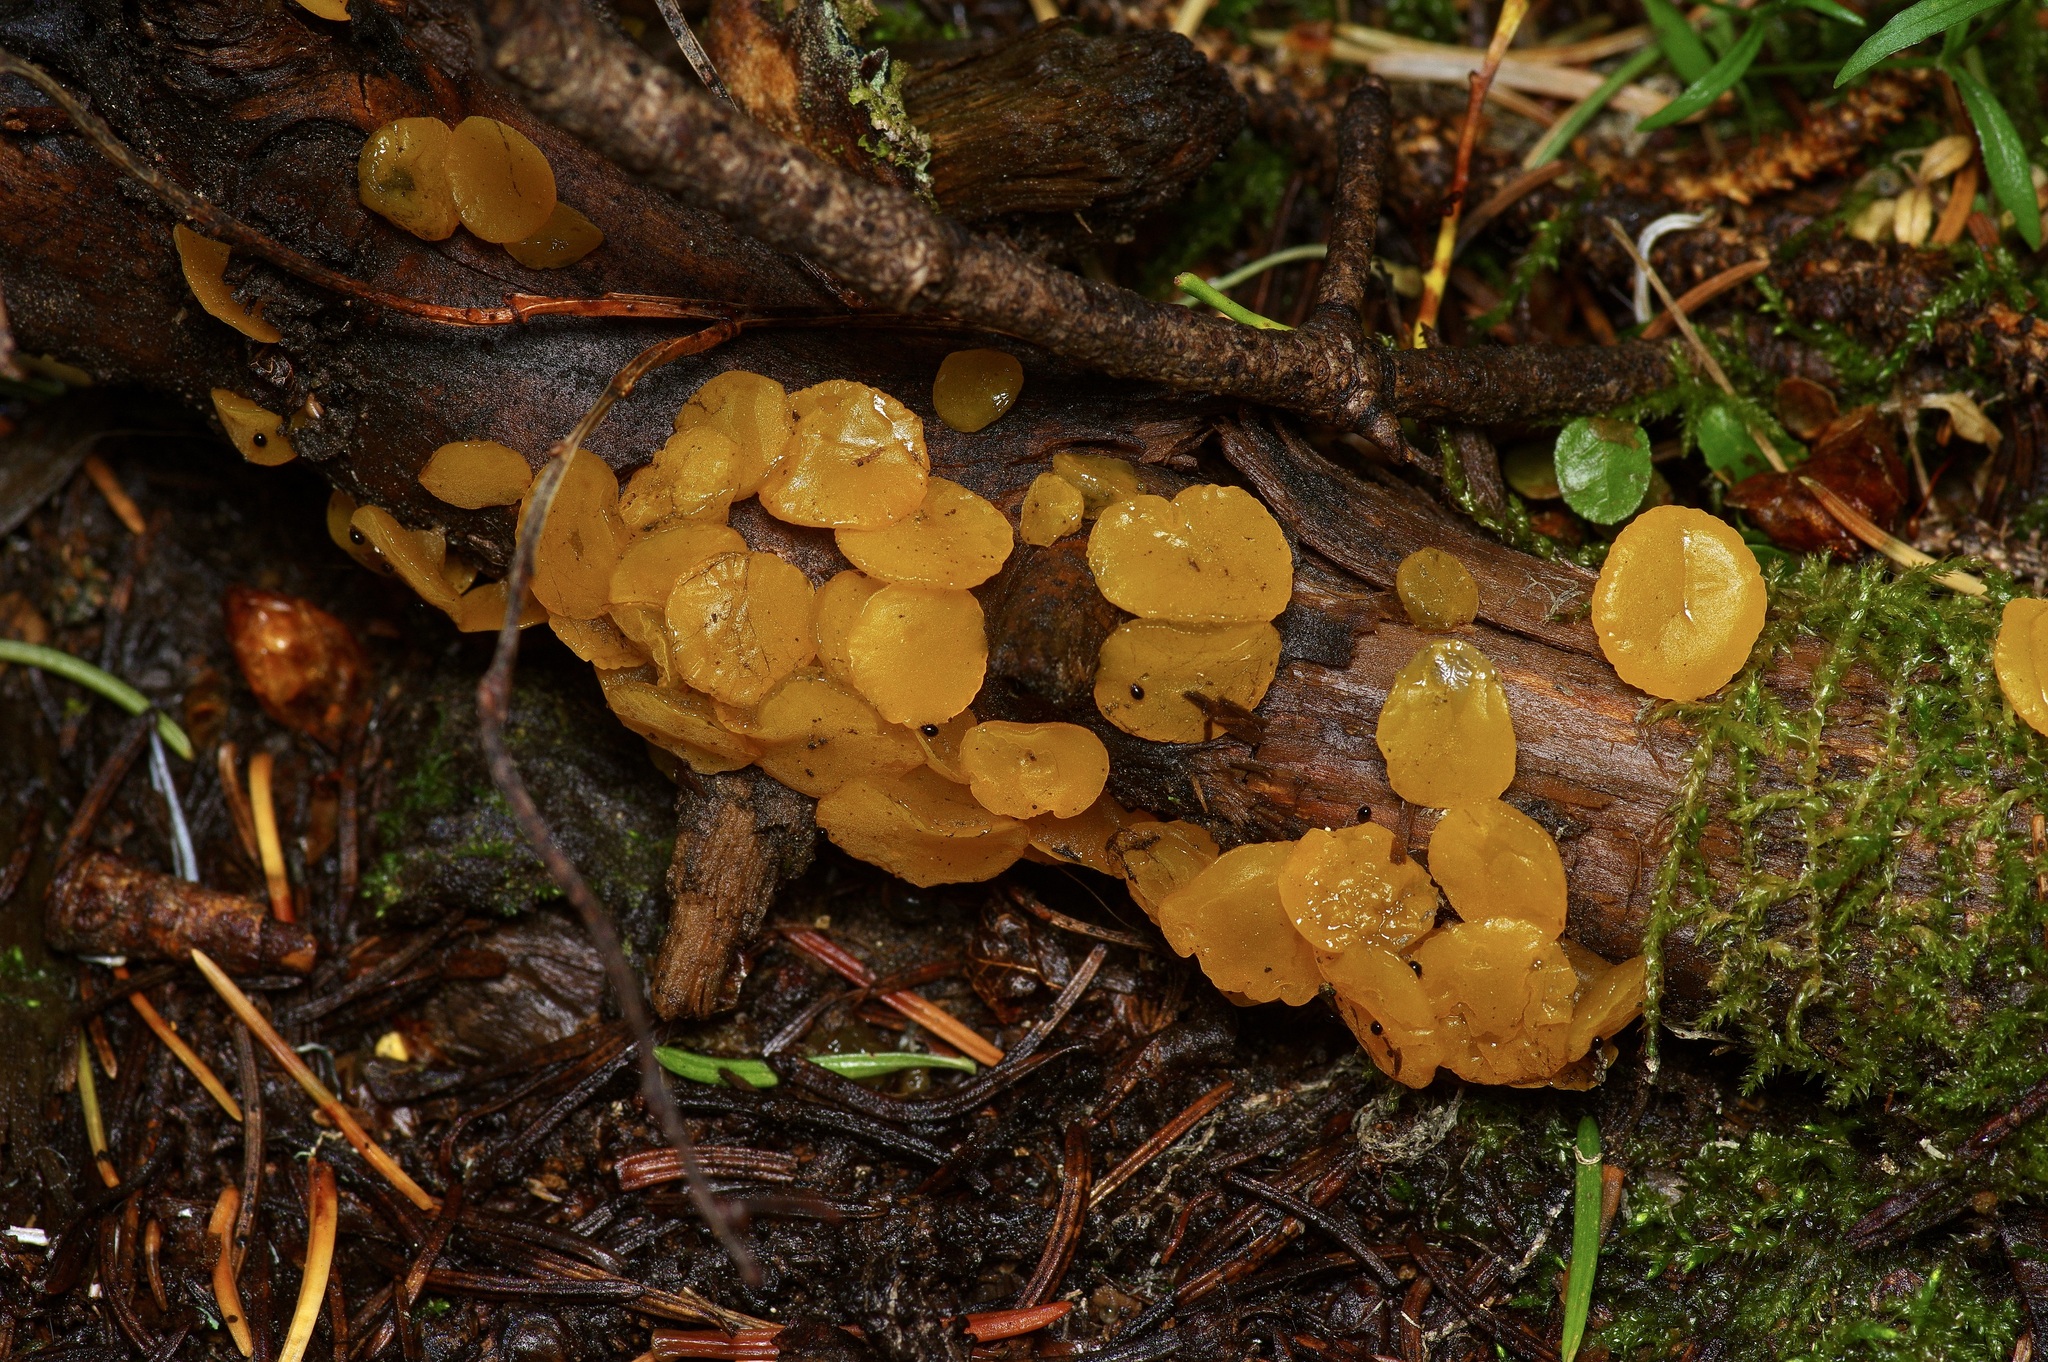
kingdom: Fungi
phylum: Basidiomycota
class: Dacrymycetes
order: Dacrymycetales
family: Dacrymycetaceae
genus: Guepiniopsis
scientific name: Guepiniopsis alpina
